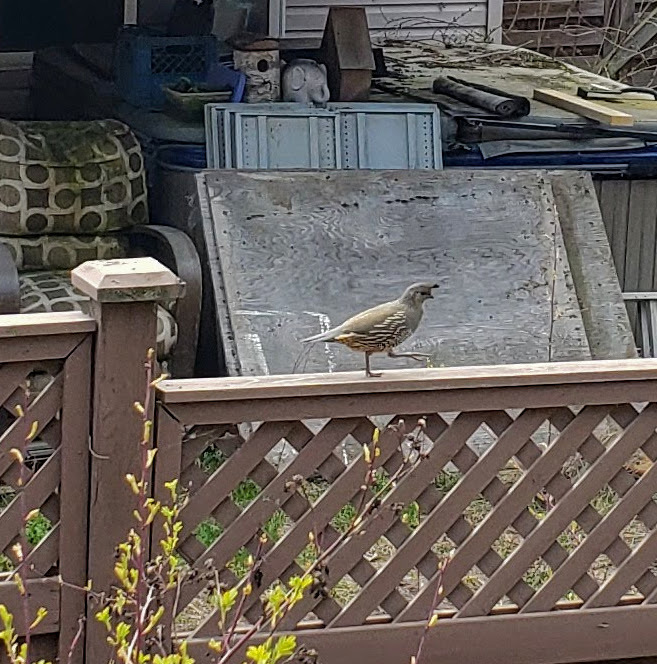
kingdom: Animalia
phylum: Chordata
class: Aves
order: Galliformes
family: Odontophoridae
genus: Callipepla
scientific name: Callipepla californica
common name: California quail
